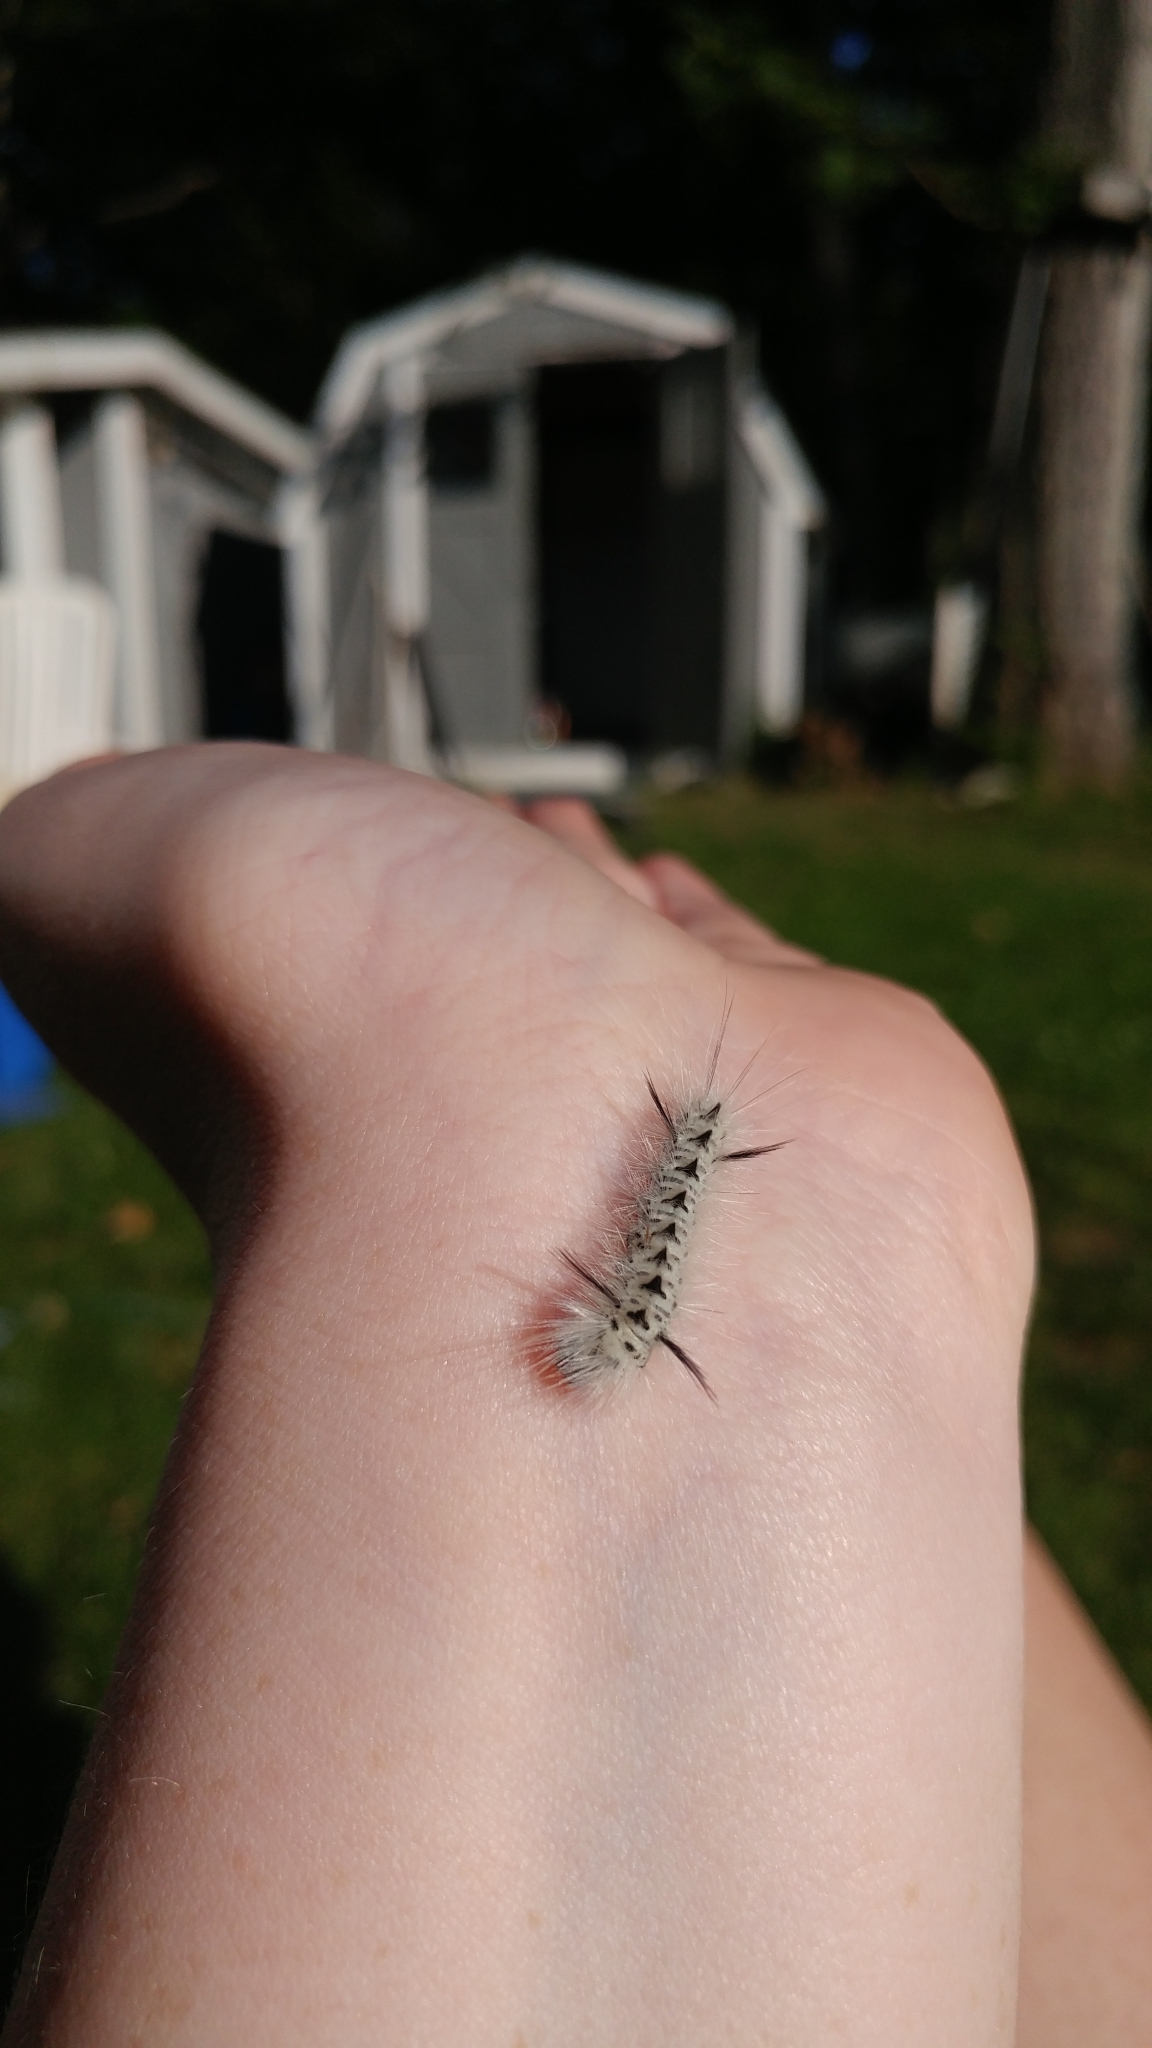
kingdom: Animalia
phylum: Arthropoda
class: Insecta
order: Lepidoptera
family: Erebidae
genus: Lophocampa
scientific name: Lophocampa caryae
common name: Hickory tussock moth
